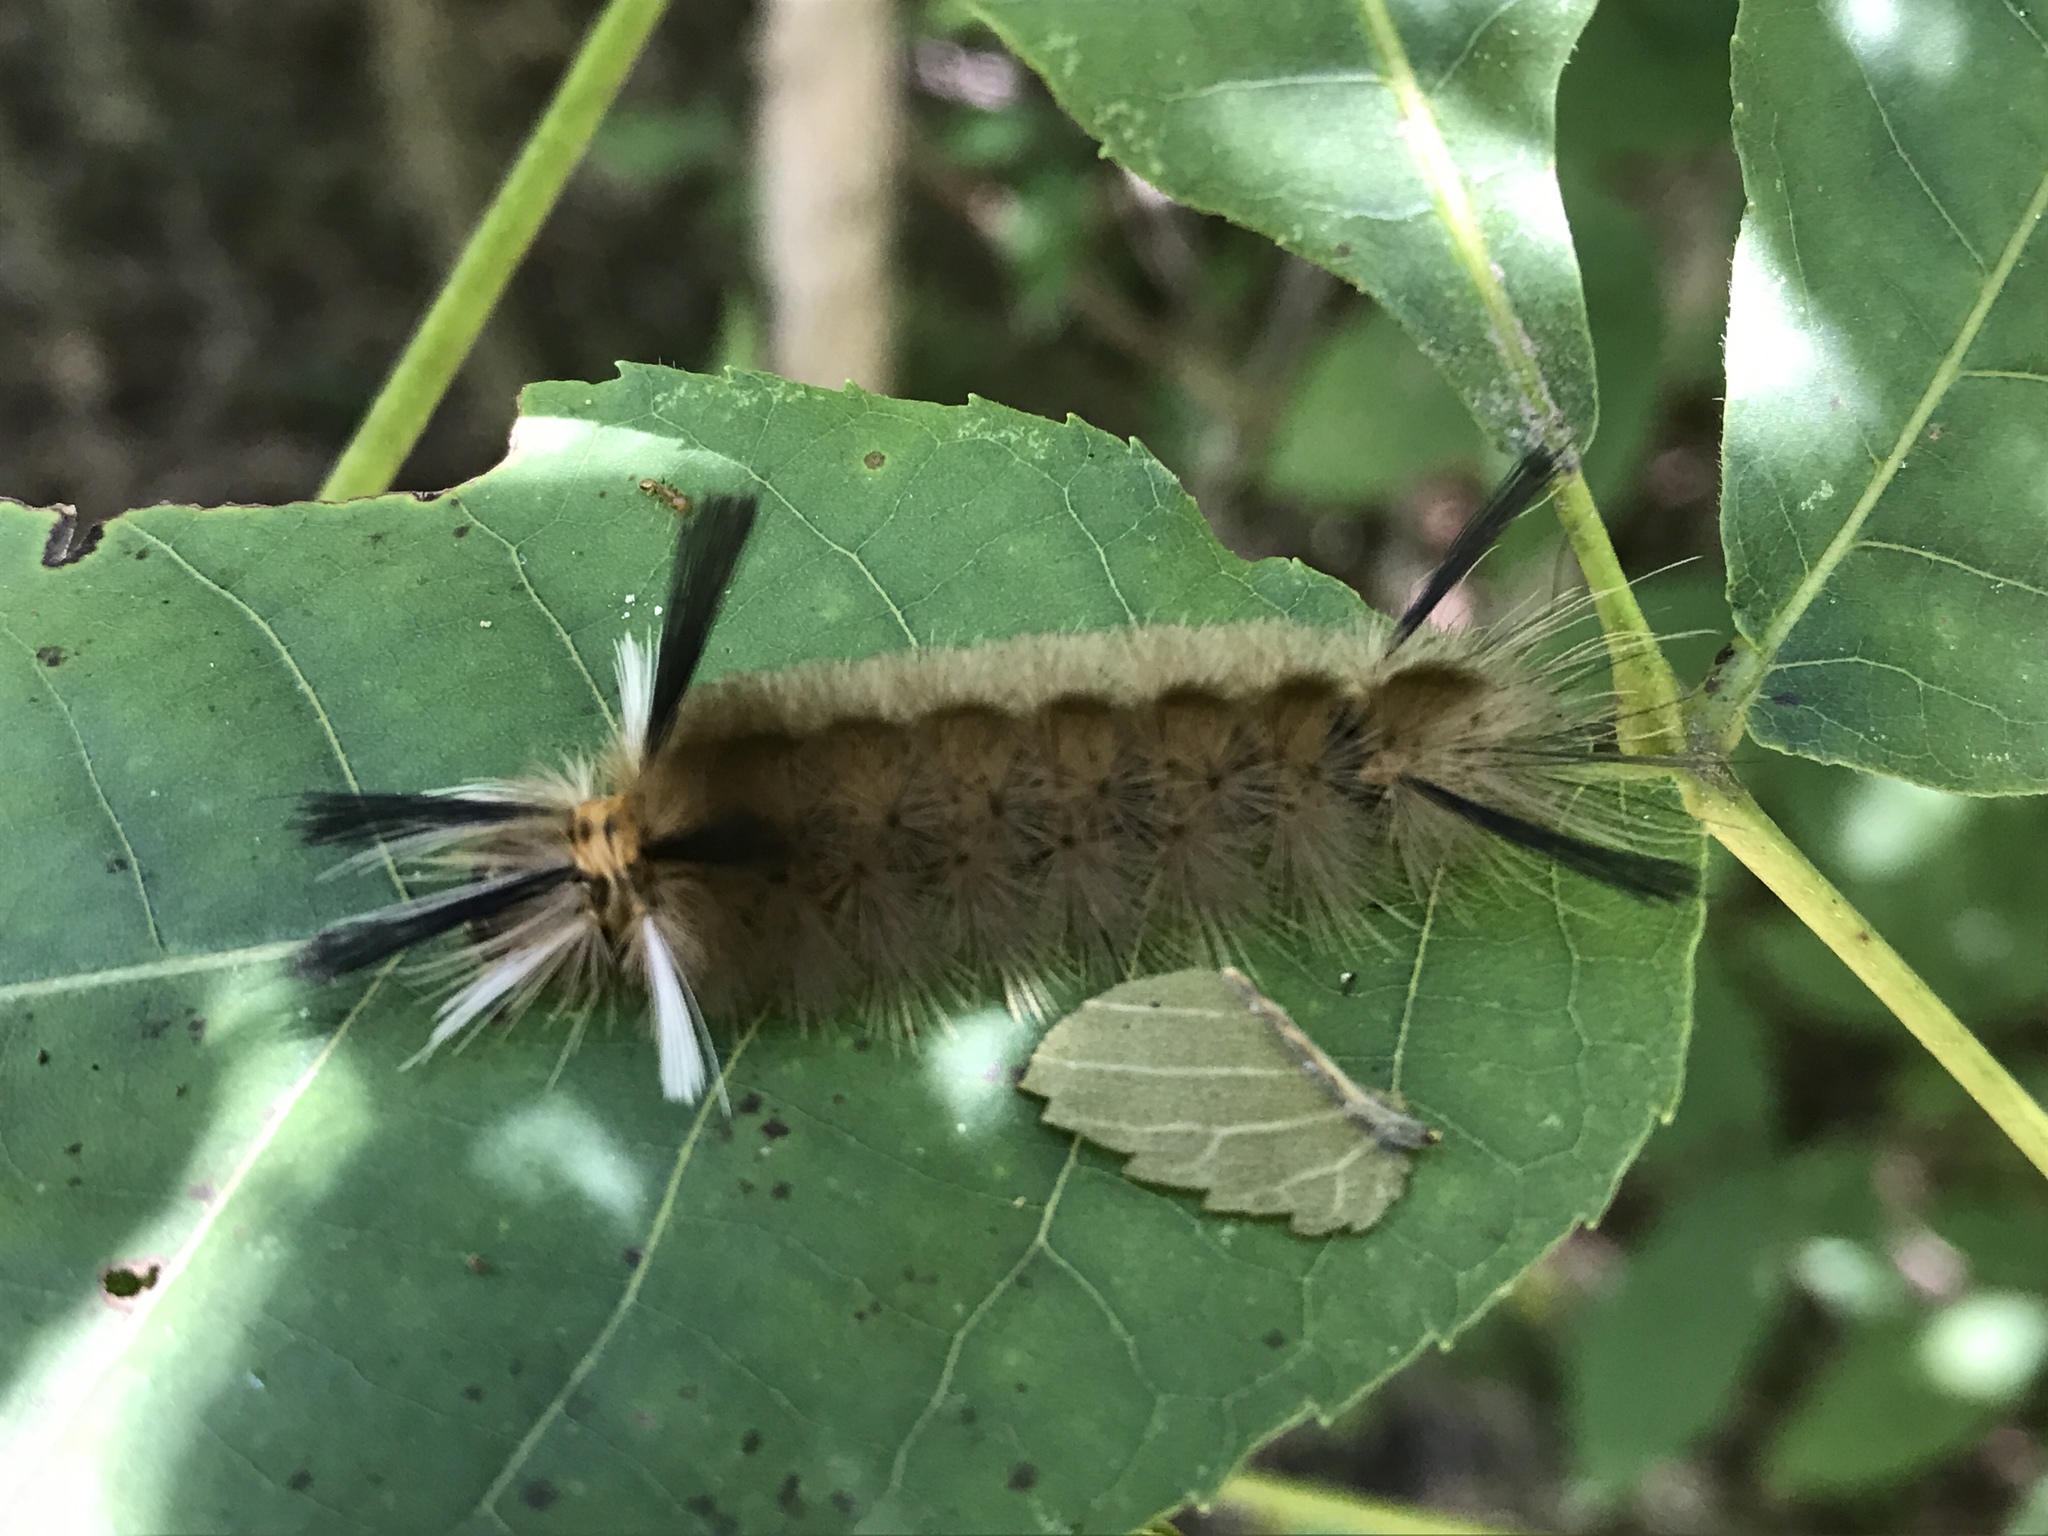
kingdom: Animalia
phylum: Arthropoda
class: Insecta
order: Lepidoptera
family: Erebidae
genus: Halysidota
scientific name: Halysidota tessellaris
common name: Banded tussock moth
